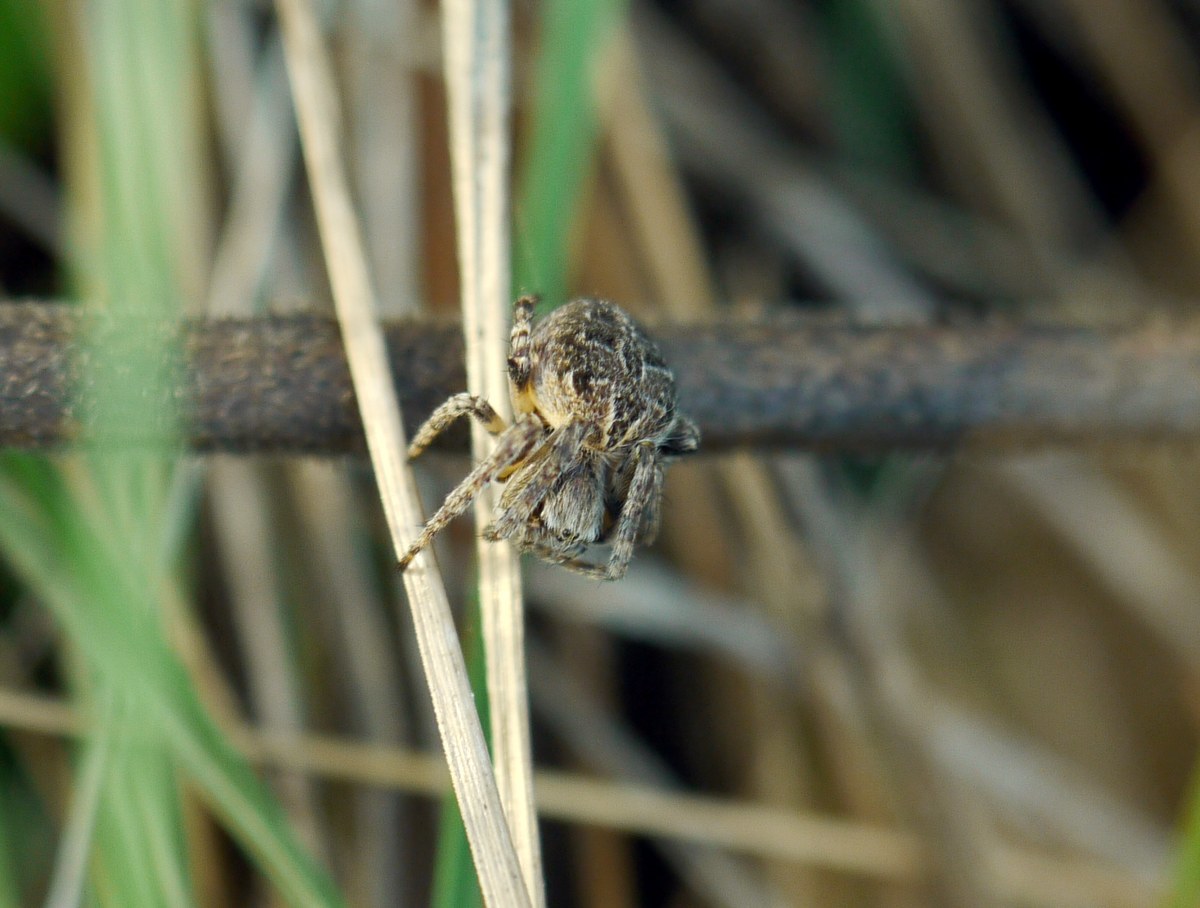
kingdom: Animalia
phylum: Arthropoda
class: Arachnida
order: Araneae
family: Araneidae
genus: Agalenatea
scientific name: Agalenatea redii
